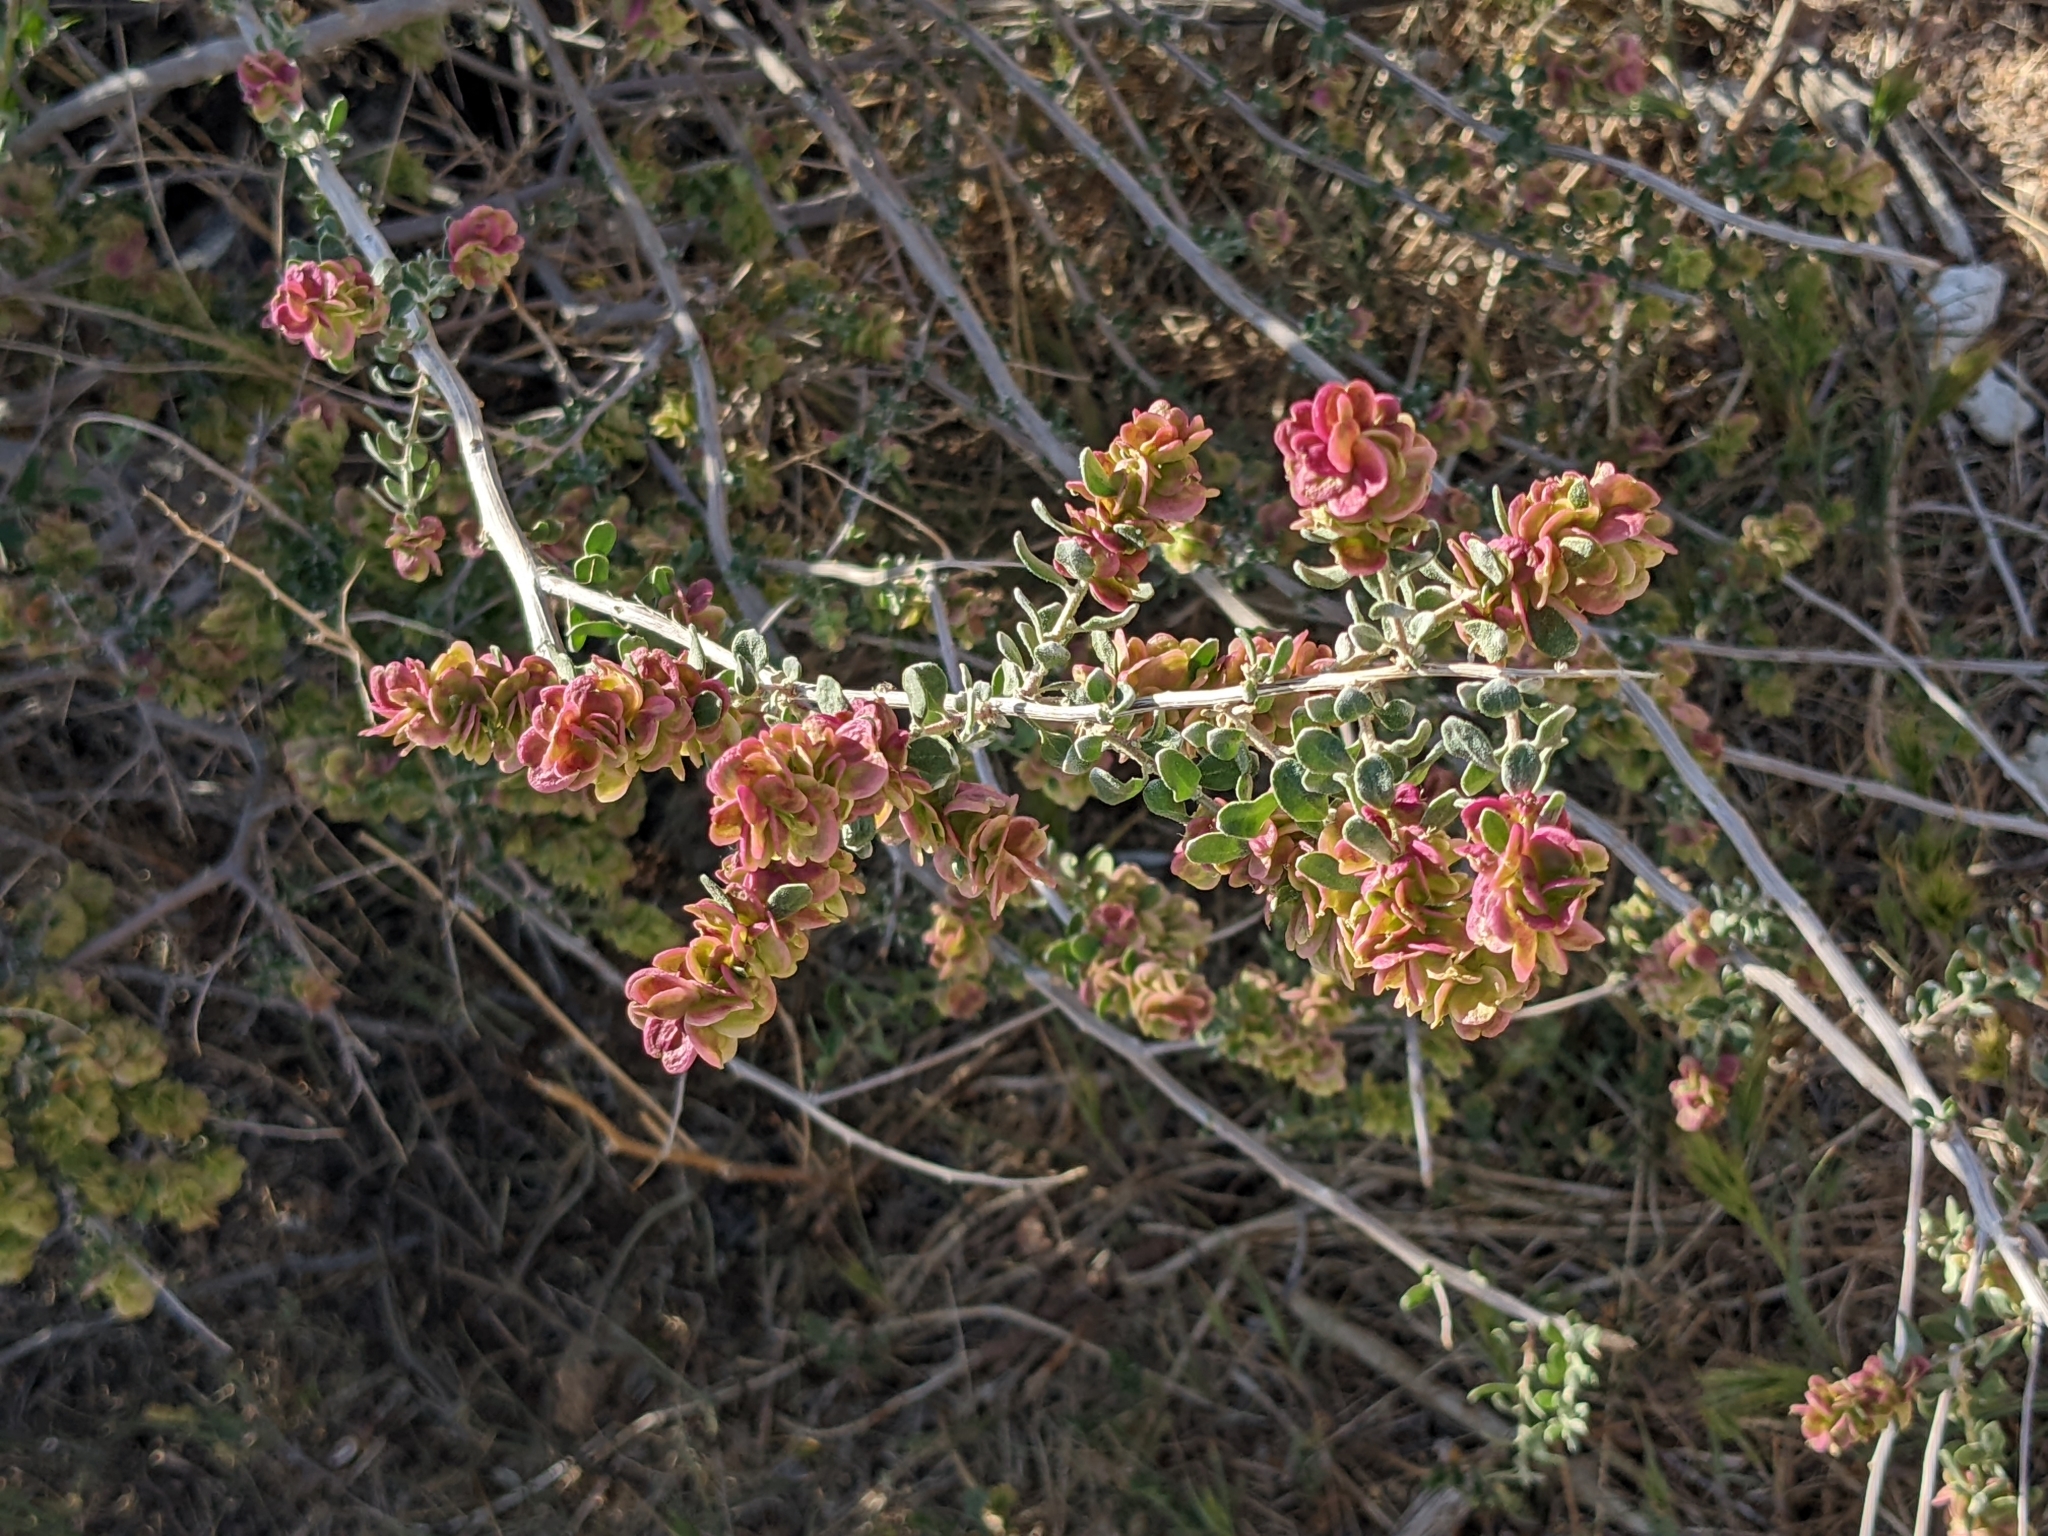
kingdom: Plantae
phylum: Tracheophyta
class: Magnoliopsida
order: Caryophyllales
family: Amaranthaceae
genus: Grayia
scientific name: Grayia spinosa
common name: Spiny hopsage
